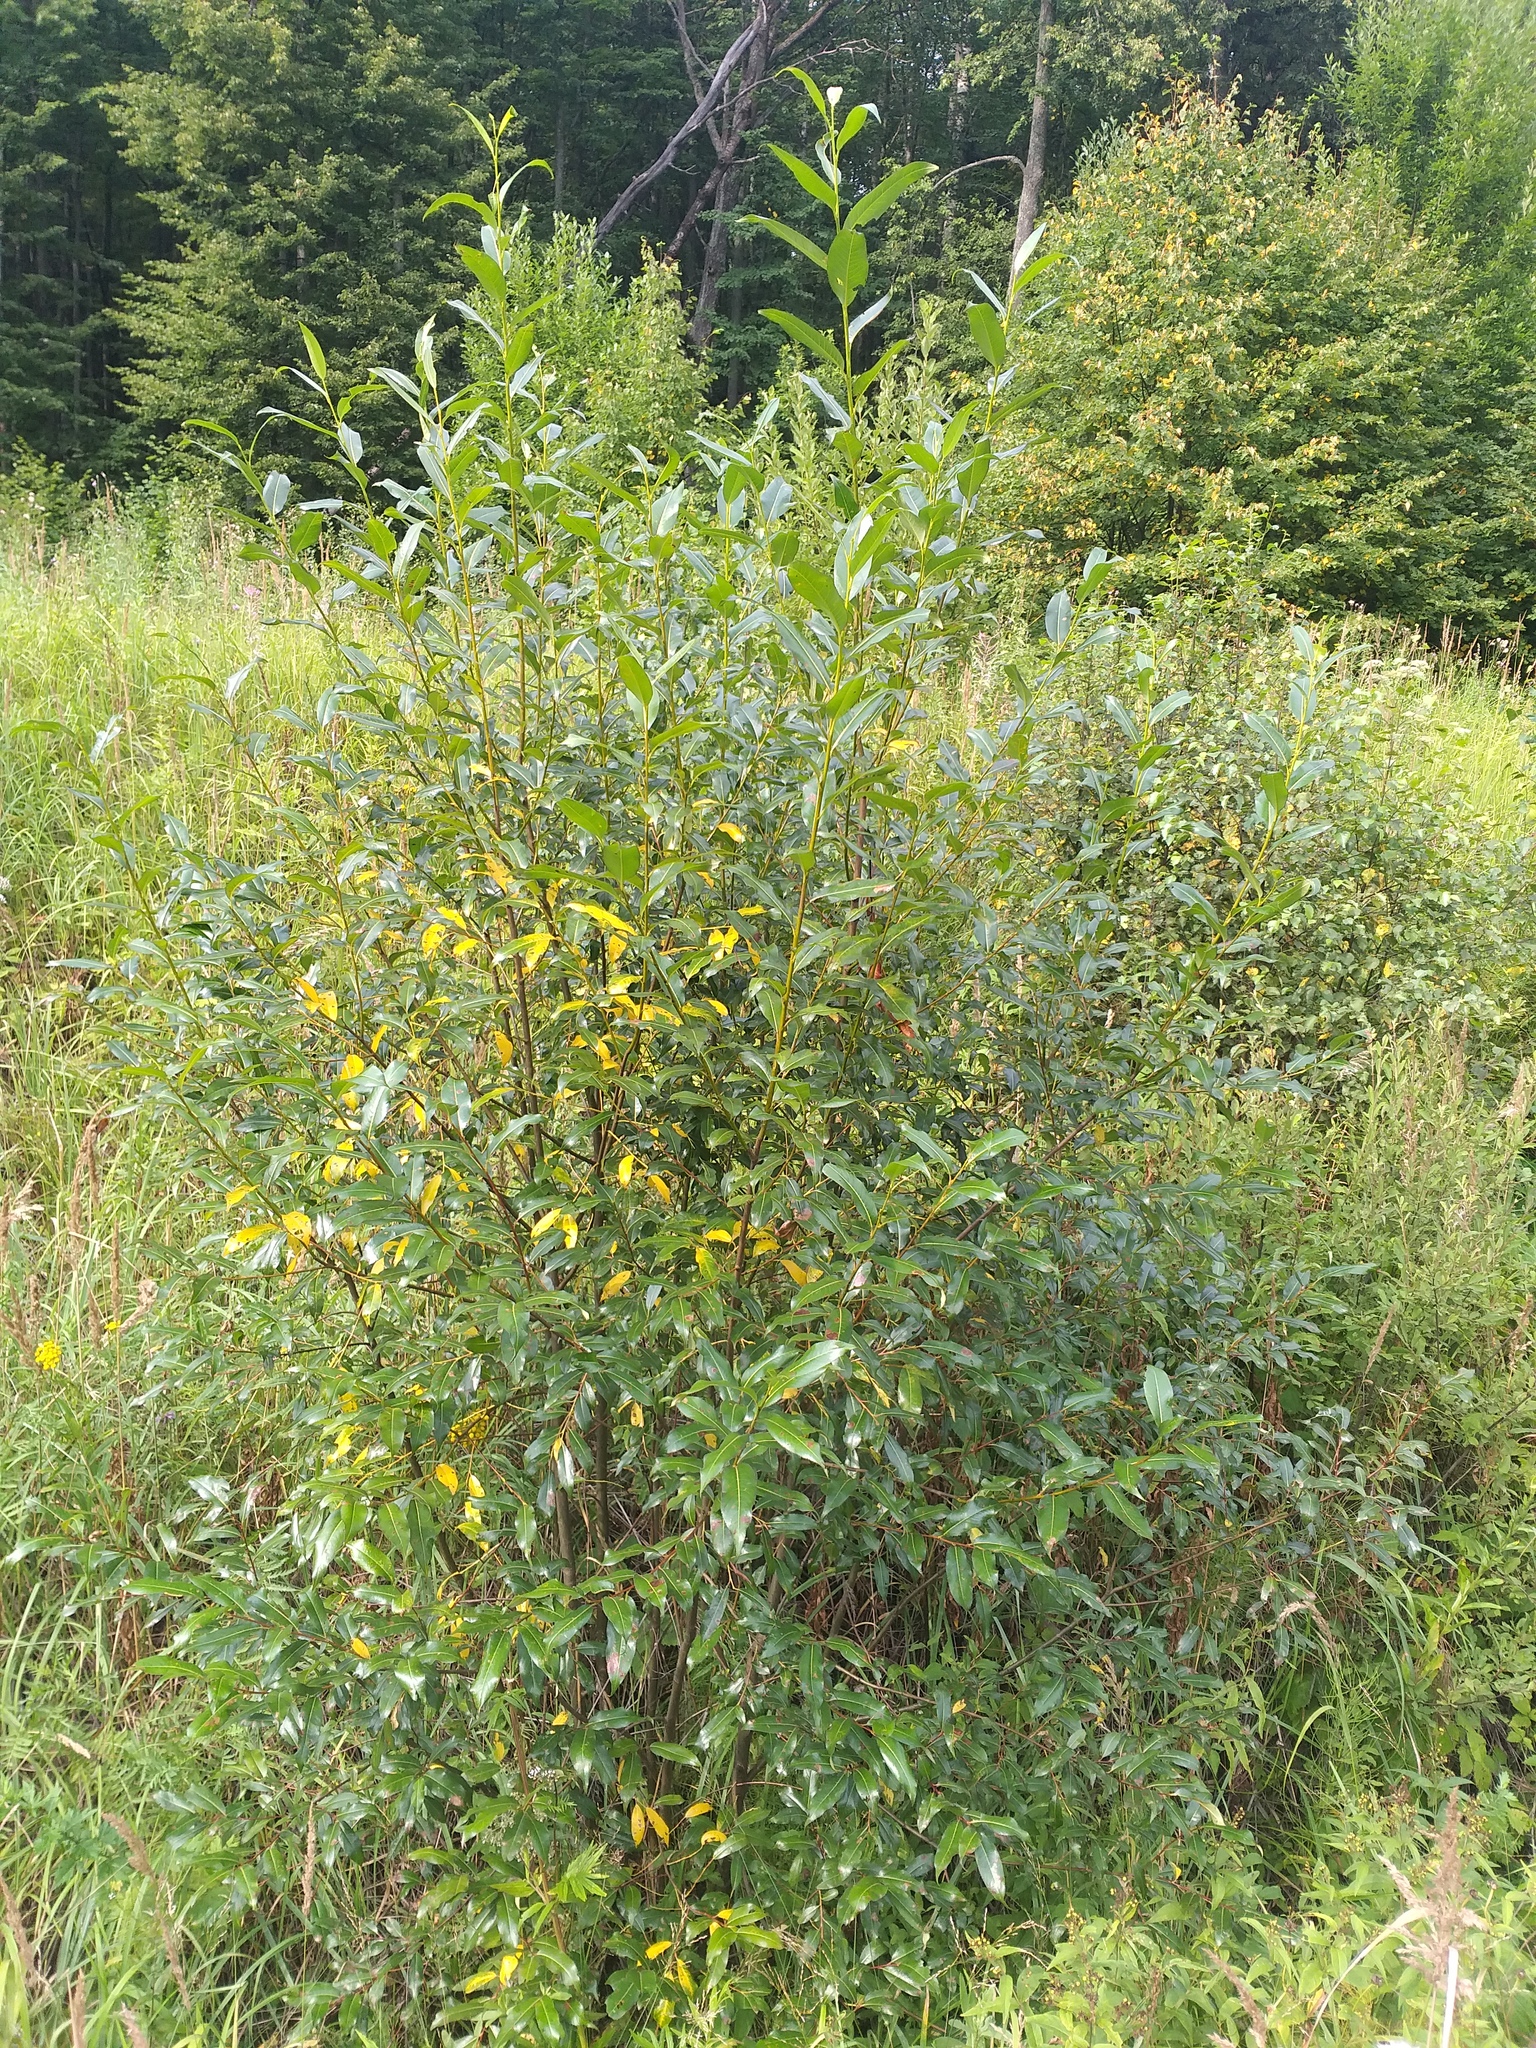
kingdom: Plantae
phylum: Tracheophyta
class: Magnoliopsida
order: Malpighiales
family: Salicaceae
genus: Salix
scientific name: Salix pentandra
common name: Bay willow
